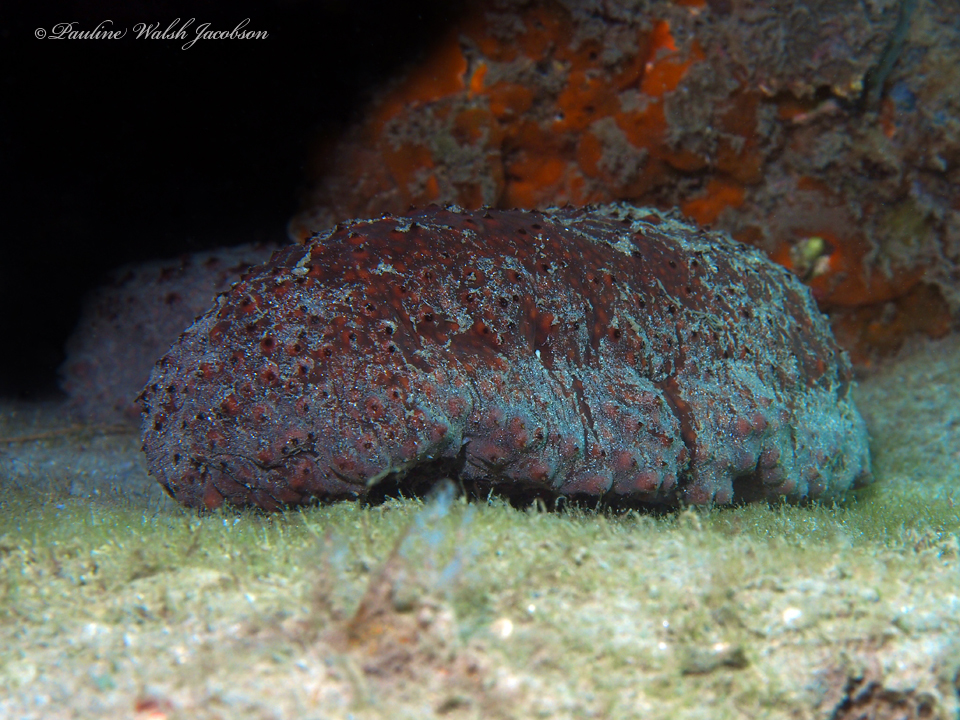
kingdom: Animalia
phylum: Echinodermata
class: Holothuroidea
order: Synallactida
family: Stichopodidae
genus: Isostichopus
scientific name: Isostichopus badionotus
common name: Chocolate chip cucumber
